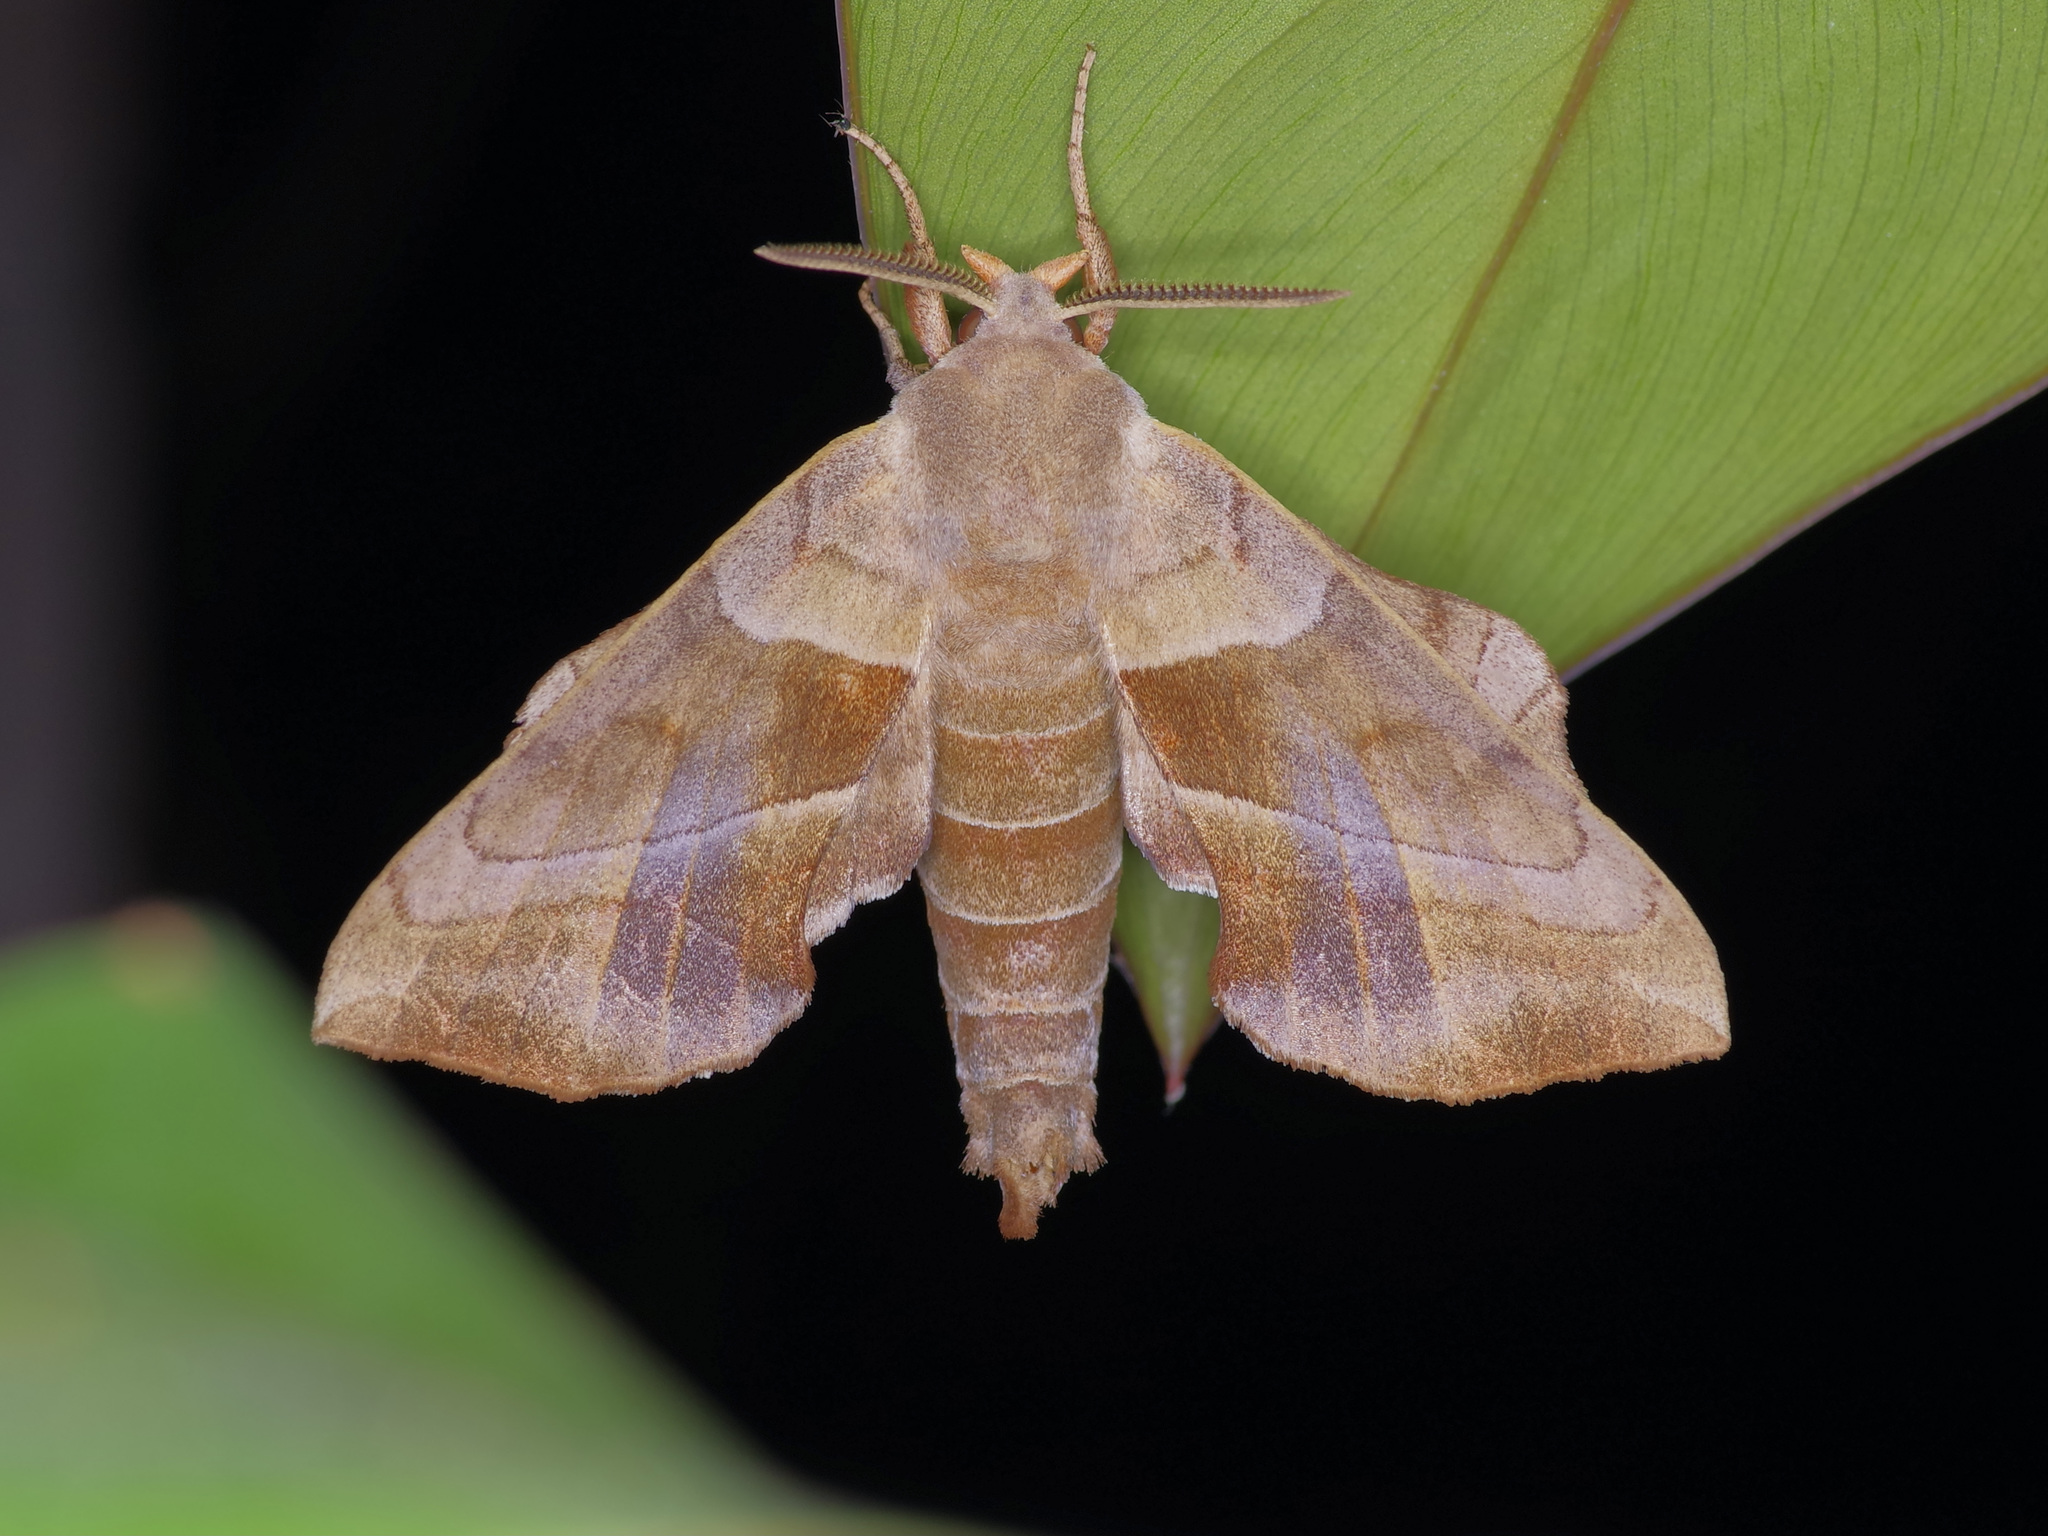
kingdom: Animalia
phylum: Arthropoda
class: Insecta
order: Lepidoptera
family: Sphingidae
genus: Amorpha
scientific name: Amorpha juglandis
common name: Walnut sphinx
